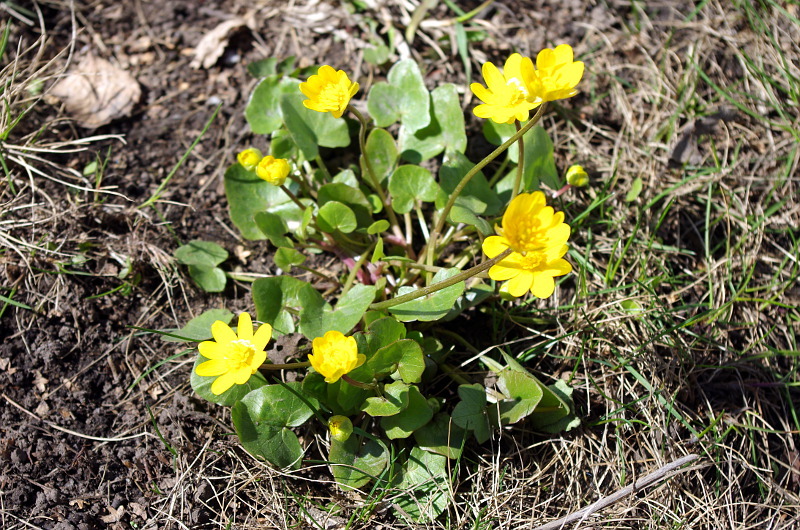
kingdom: Plantae
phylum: Tracheophyta
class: Magnoliopsida
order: Ranunculales
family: Ranunculaceae
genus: Ficaria
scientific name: Ficaria verna
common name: Lesser celandine
